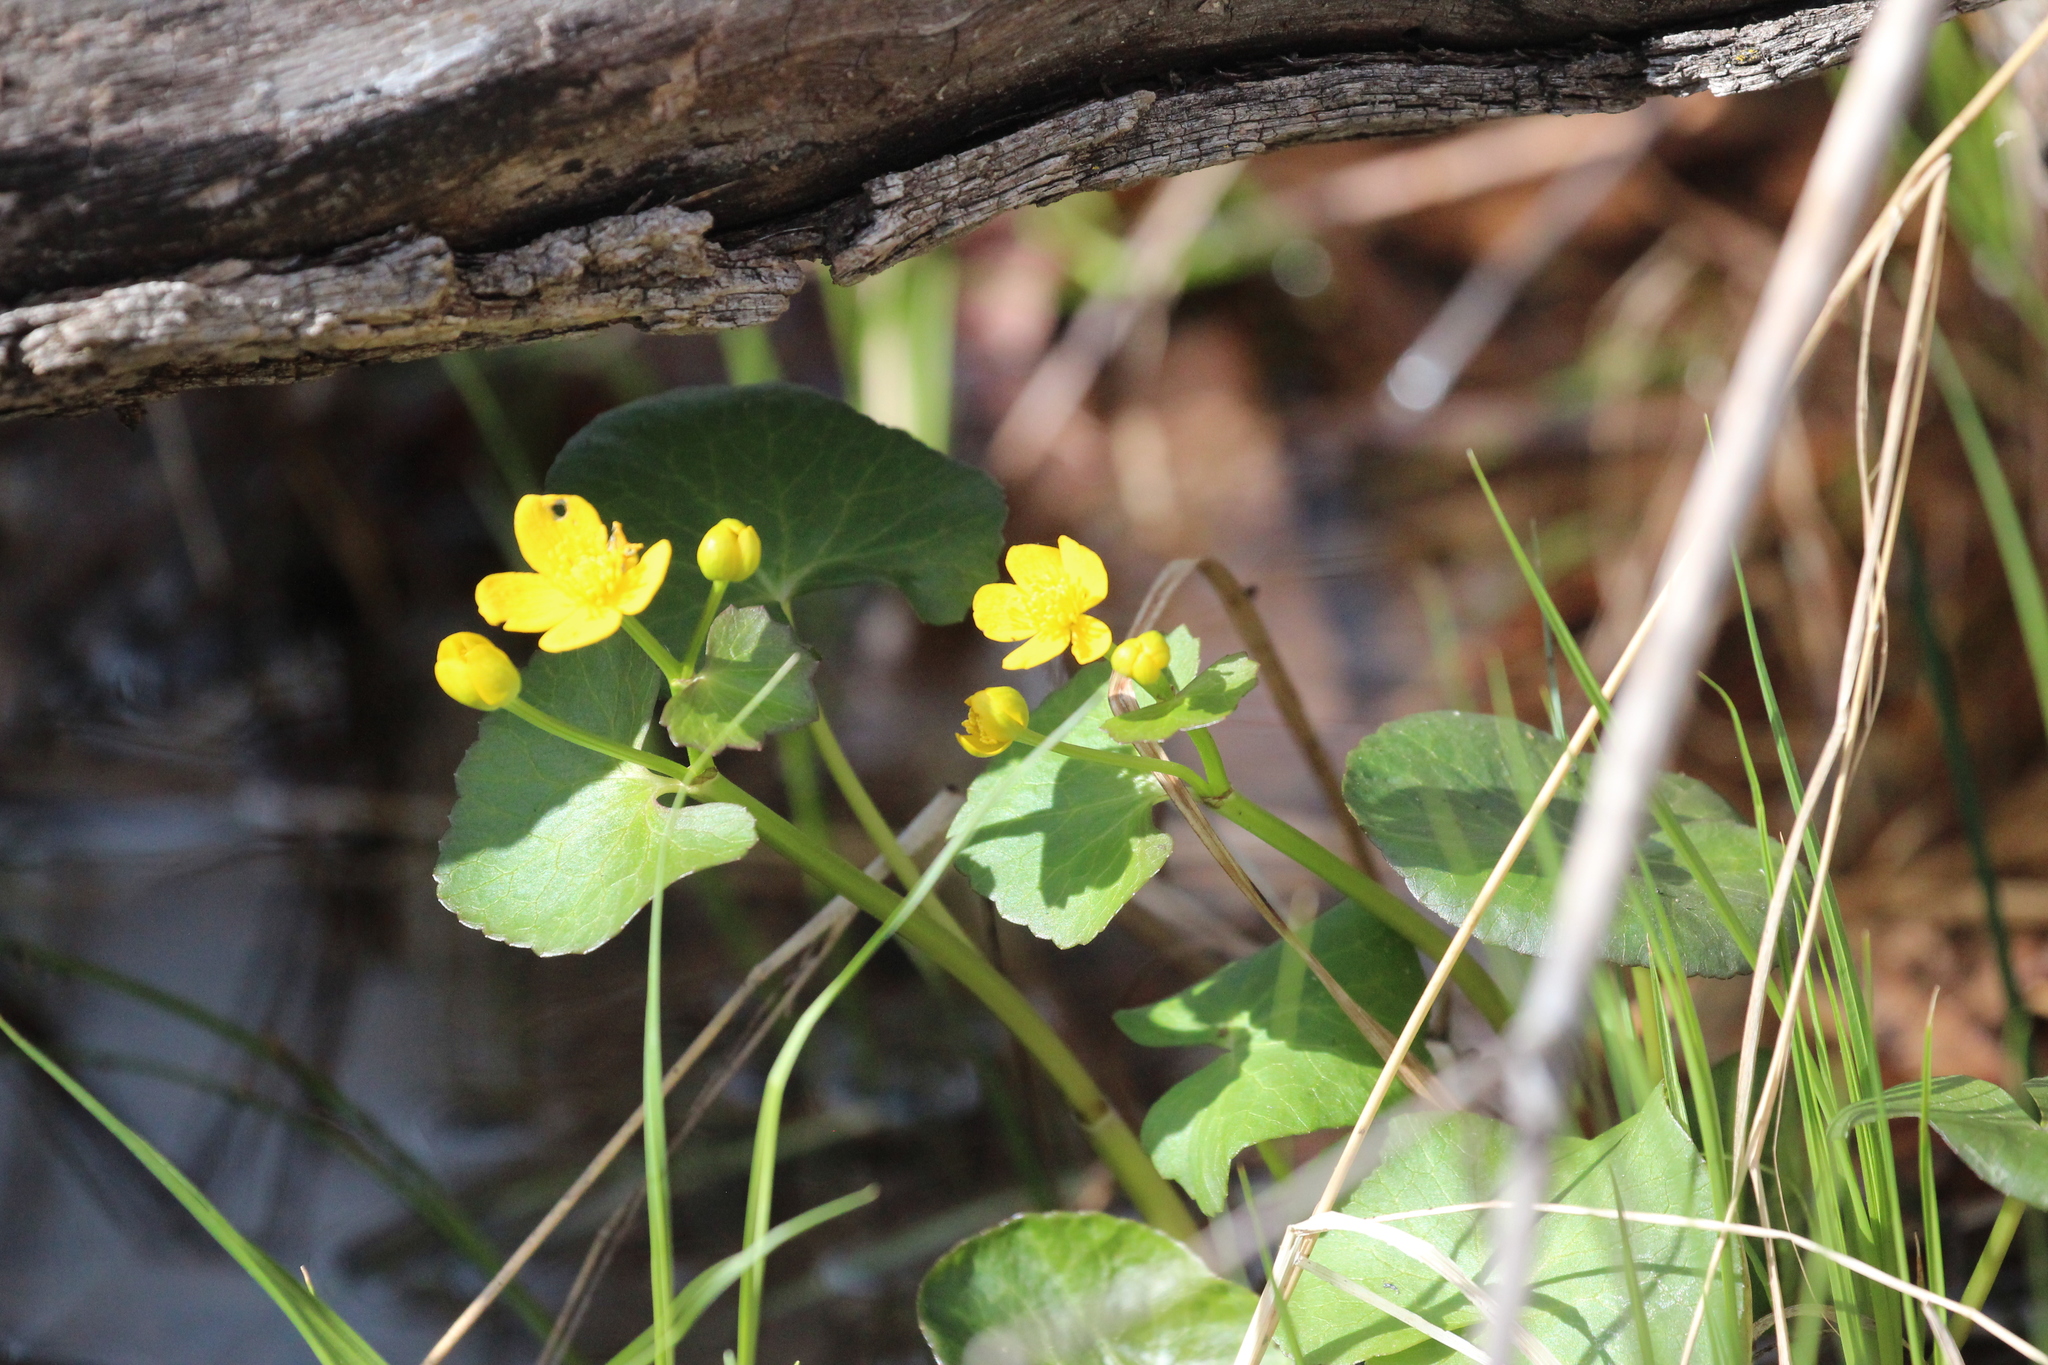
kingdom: Plantae
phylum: Tracheophyta
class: Magnoliopsida
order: Ranunculales
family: Ranunculaceae
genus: Caltha
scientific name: Caltha palustris
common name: Marsh marigold
